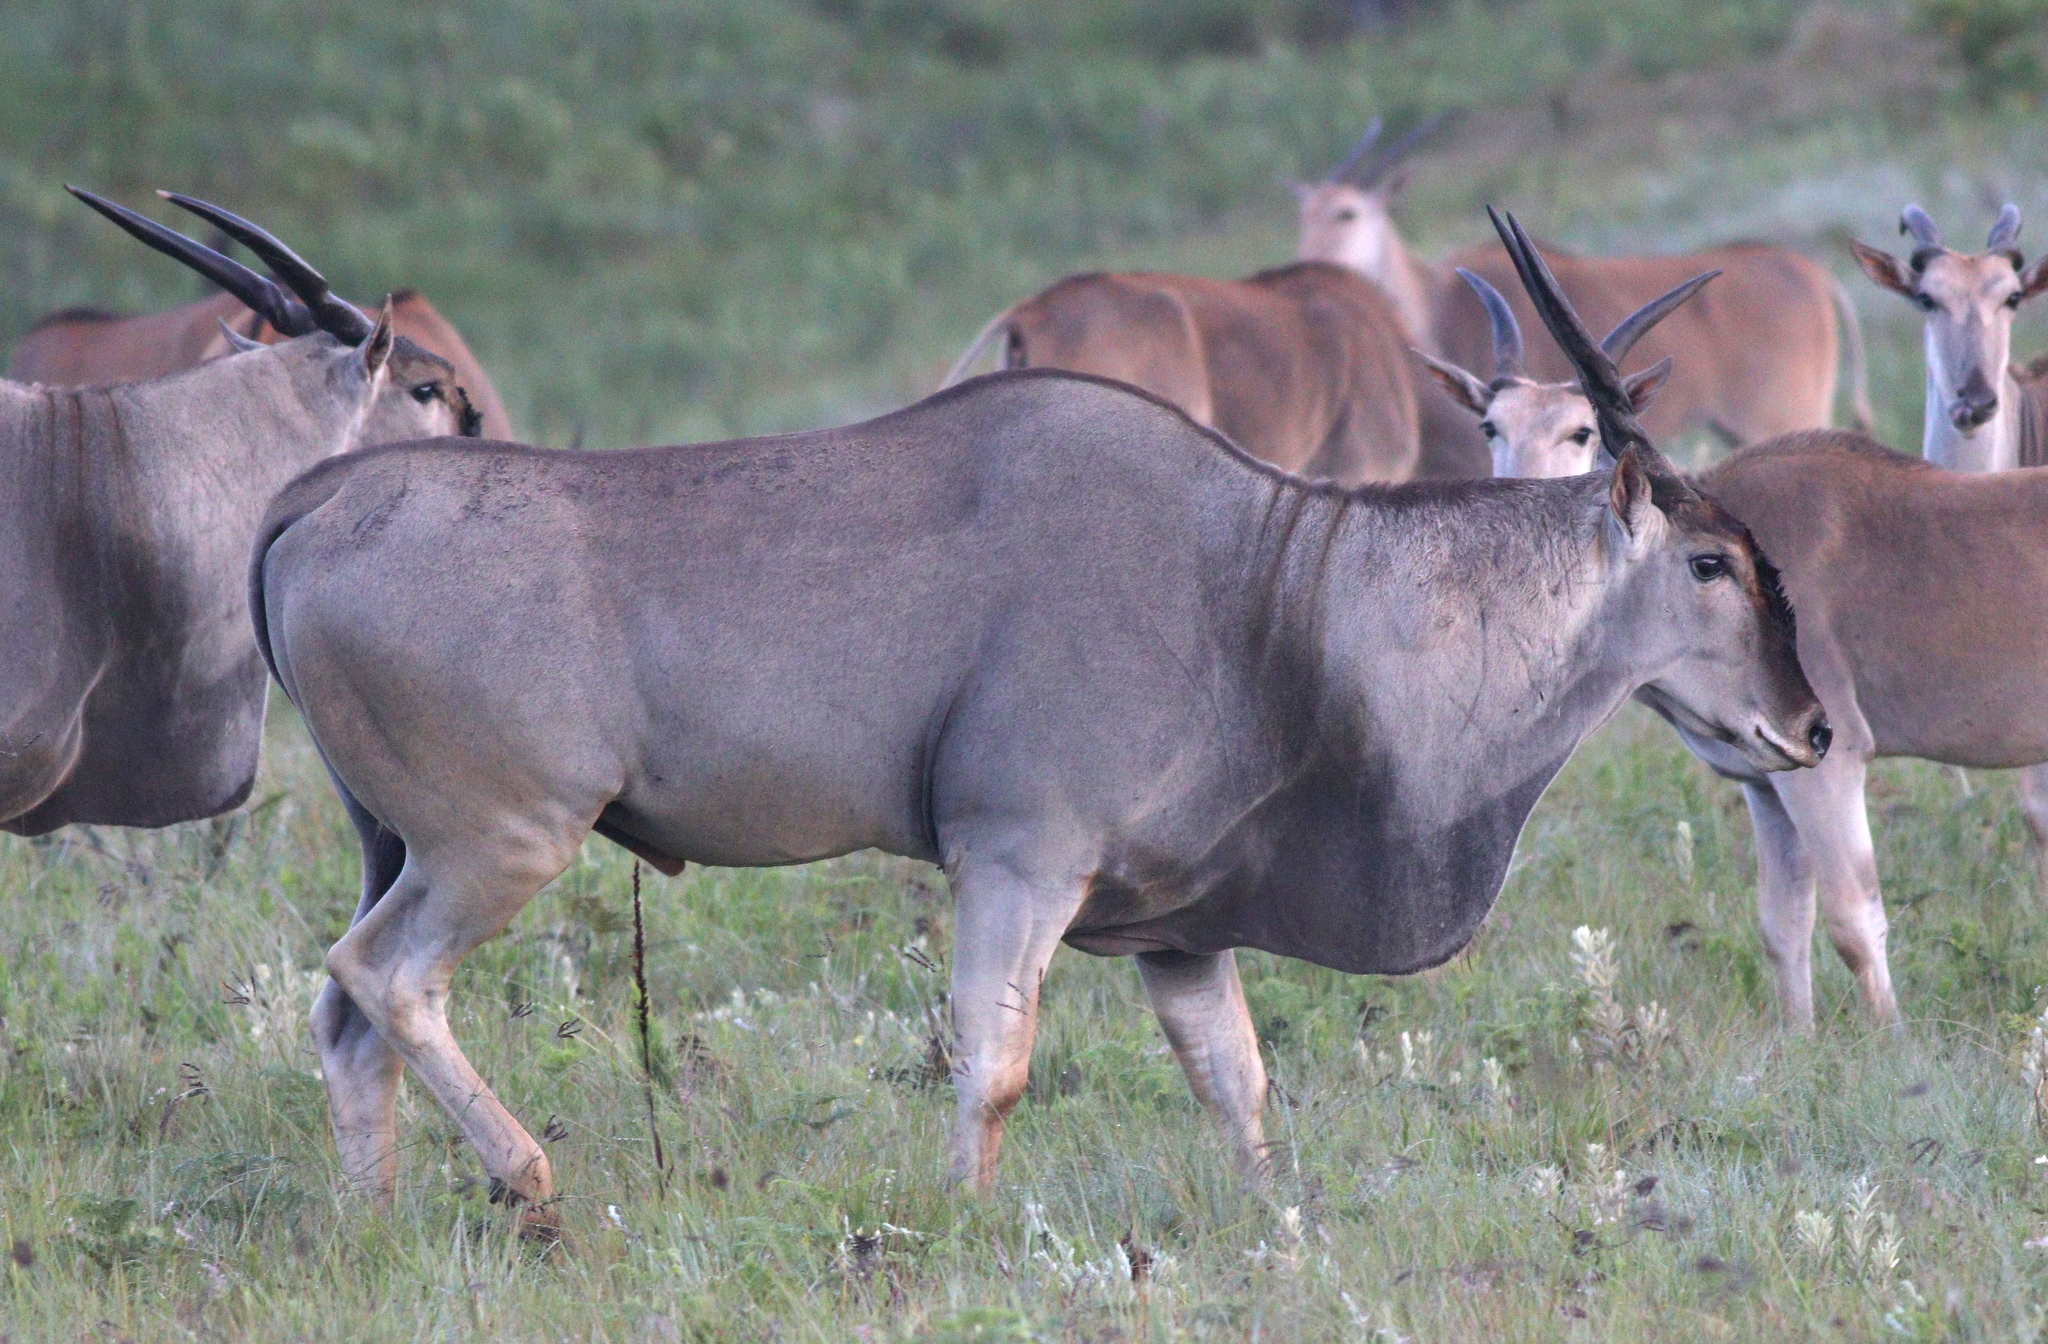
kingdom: Animalia
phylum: Chordata
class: Mammalia
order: Artiodactyla
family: Bovidae
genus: Taurotragus
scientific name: Taurotragus oryx
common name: Common eland
